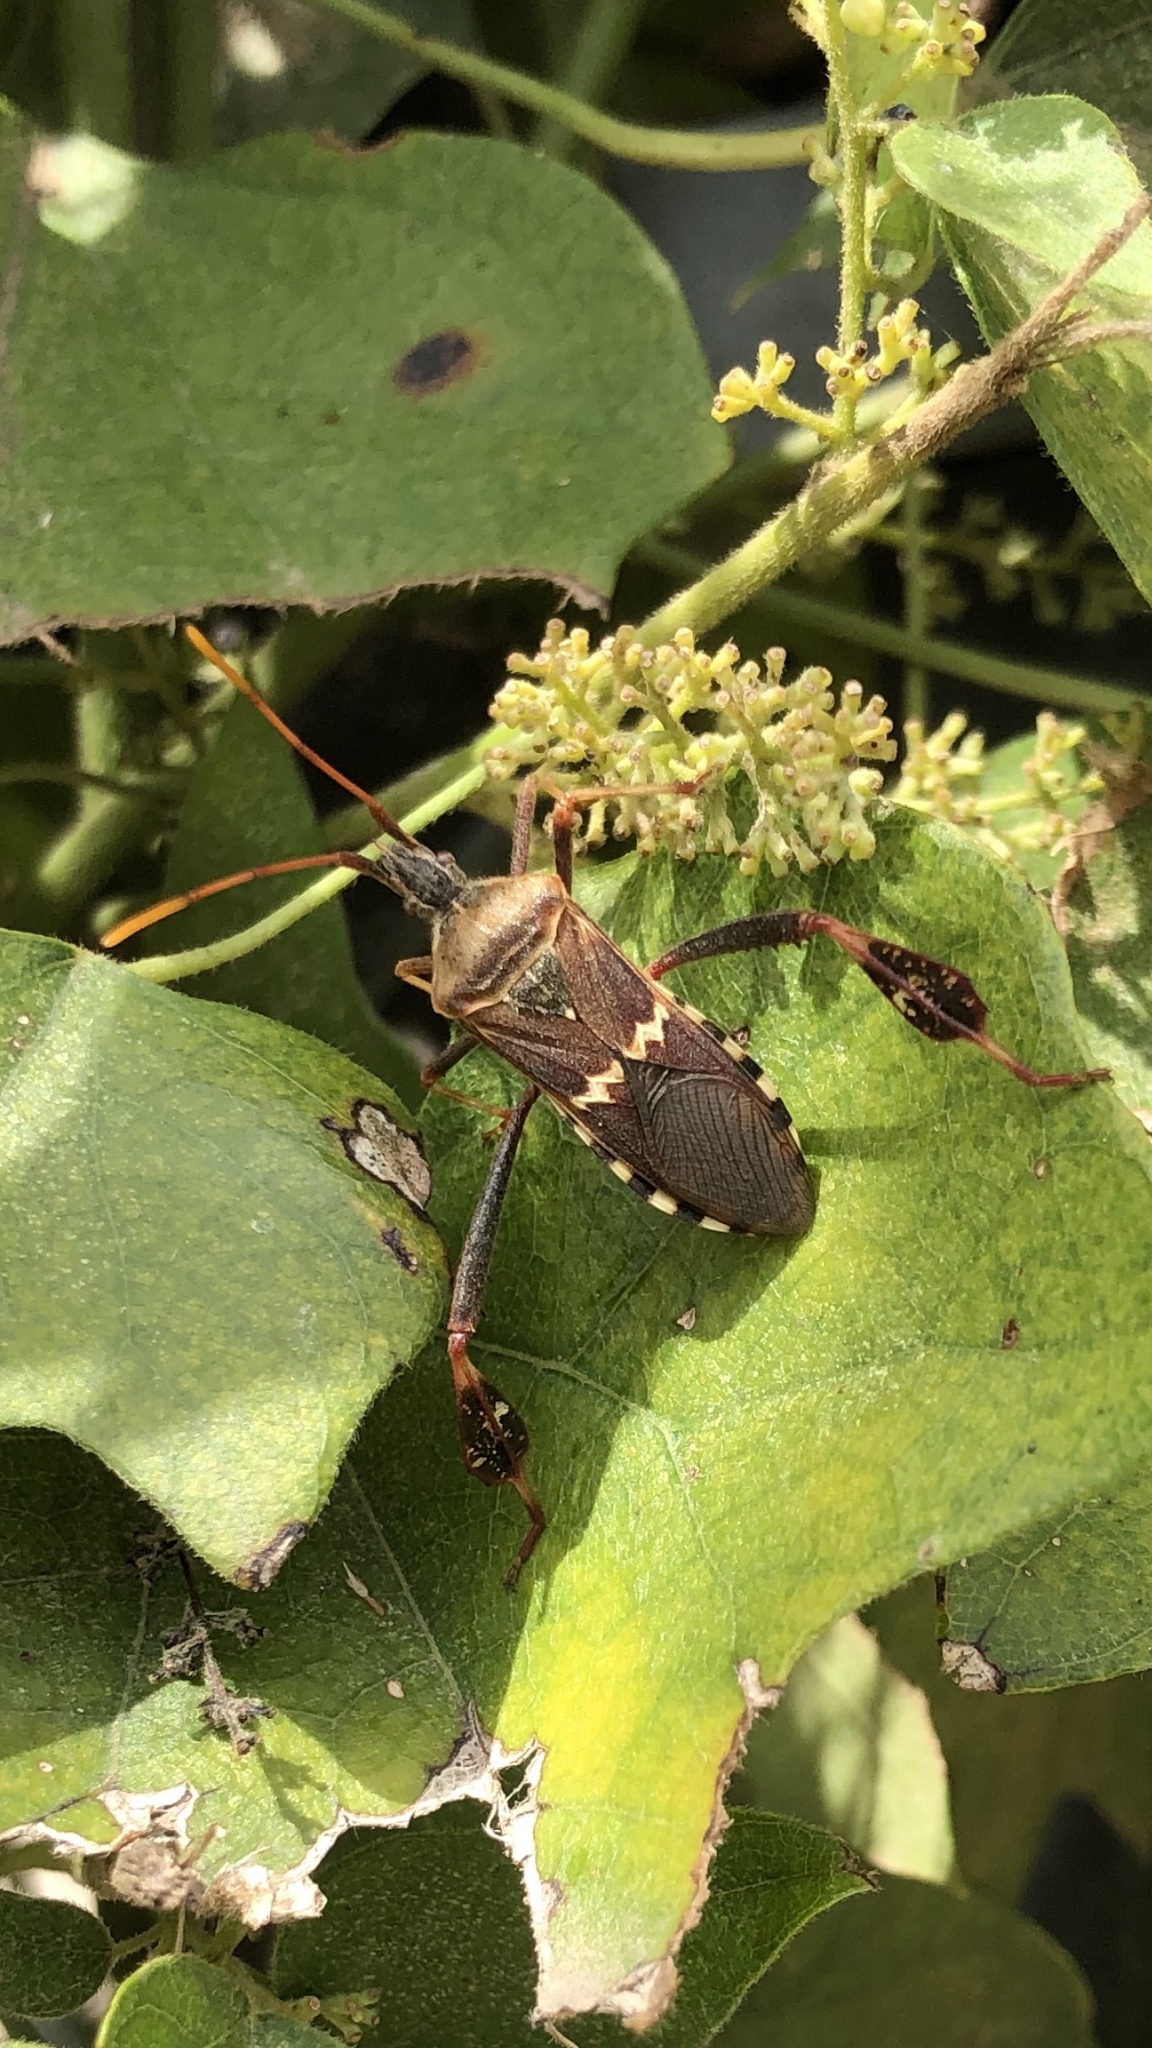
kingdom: Animalia
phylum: Arthropoda
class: Insecta
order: Hemiptera
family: Coreidae
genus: Leptoglossus
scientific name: Leptoglossus clypealis
